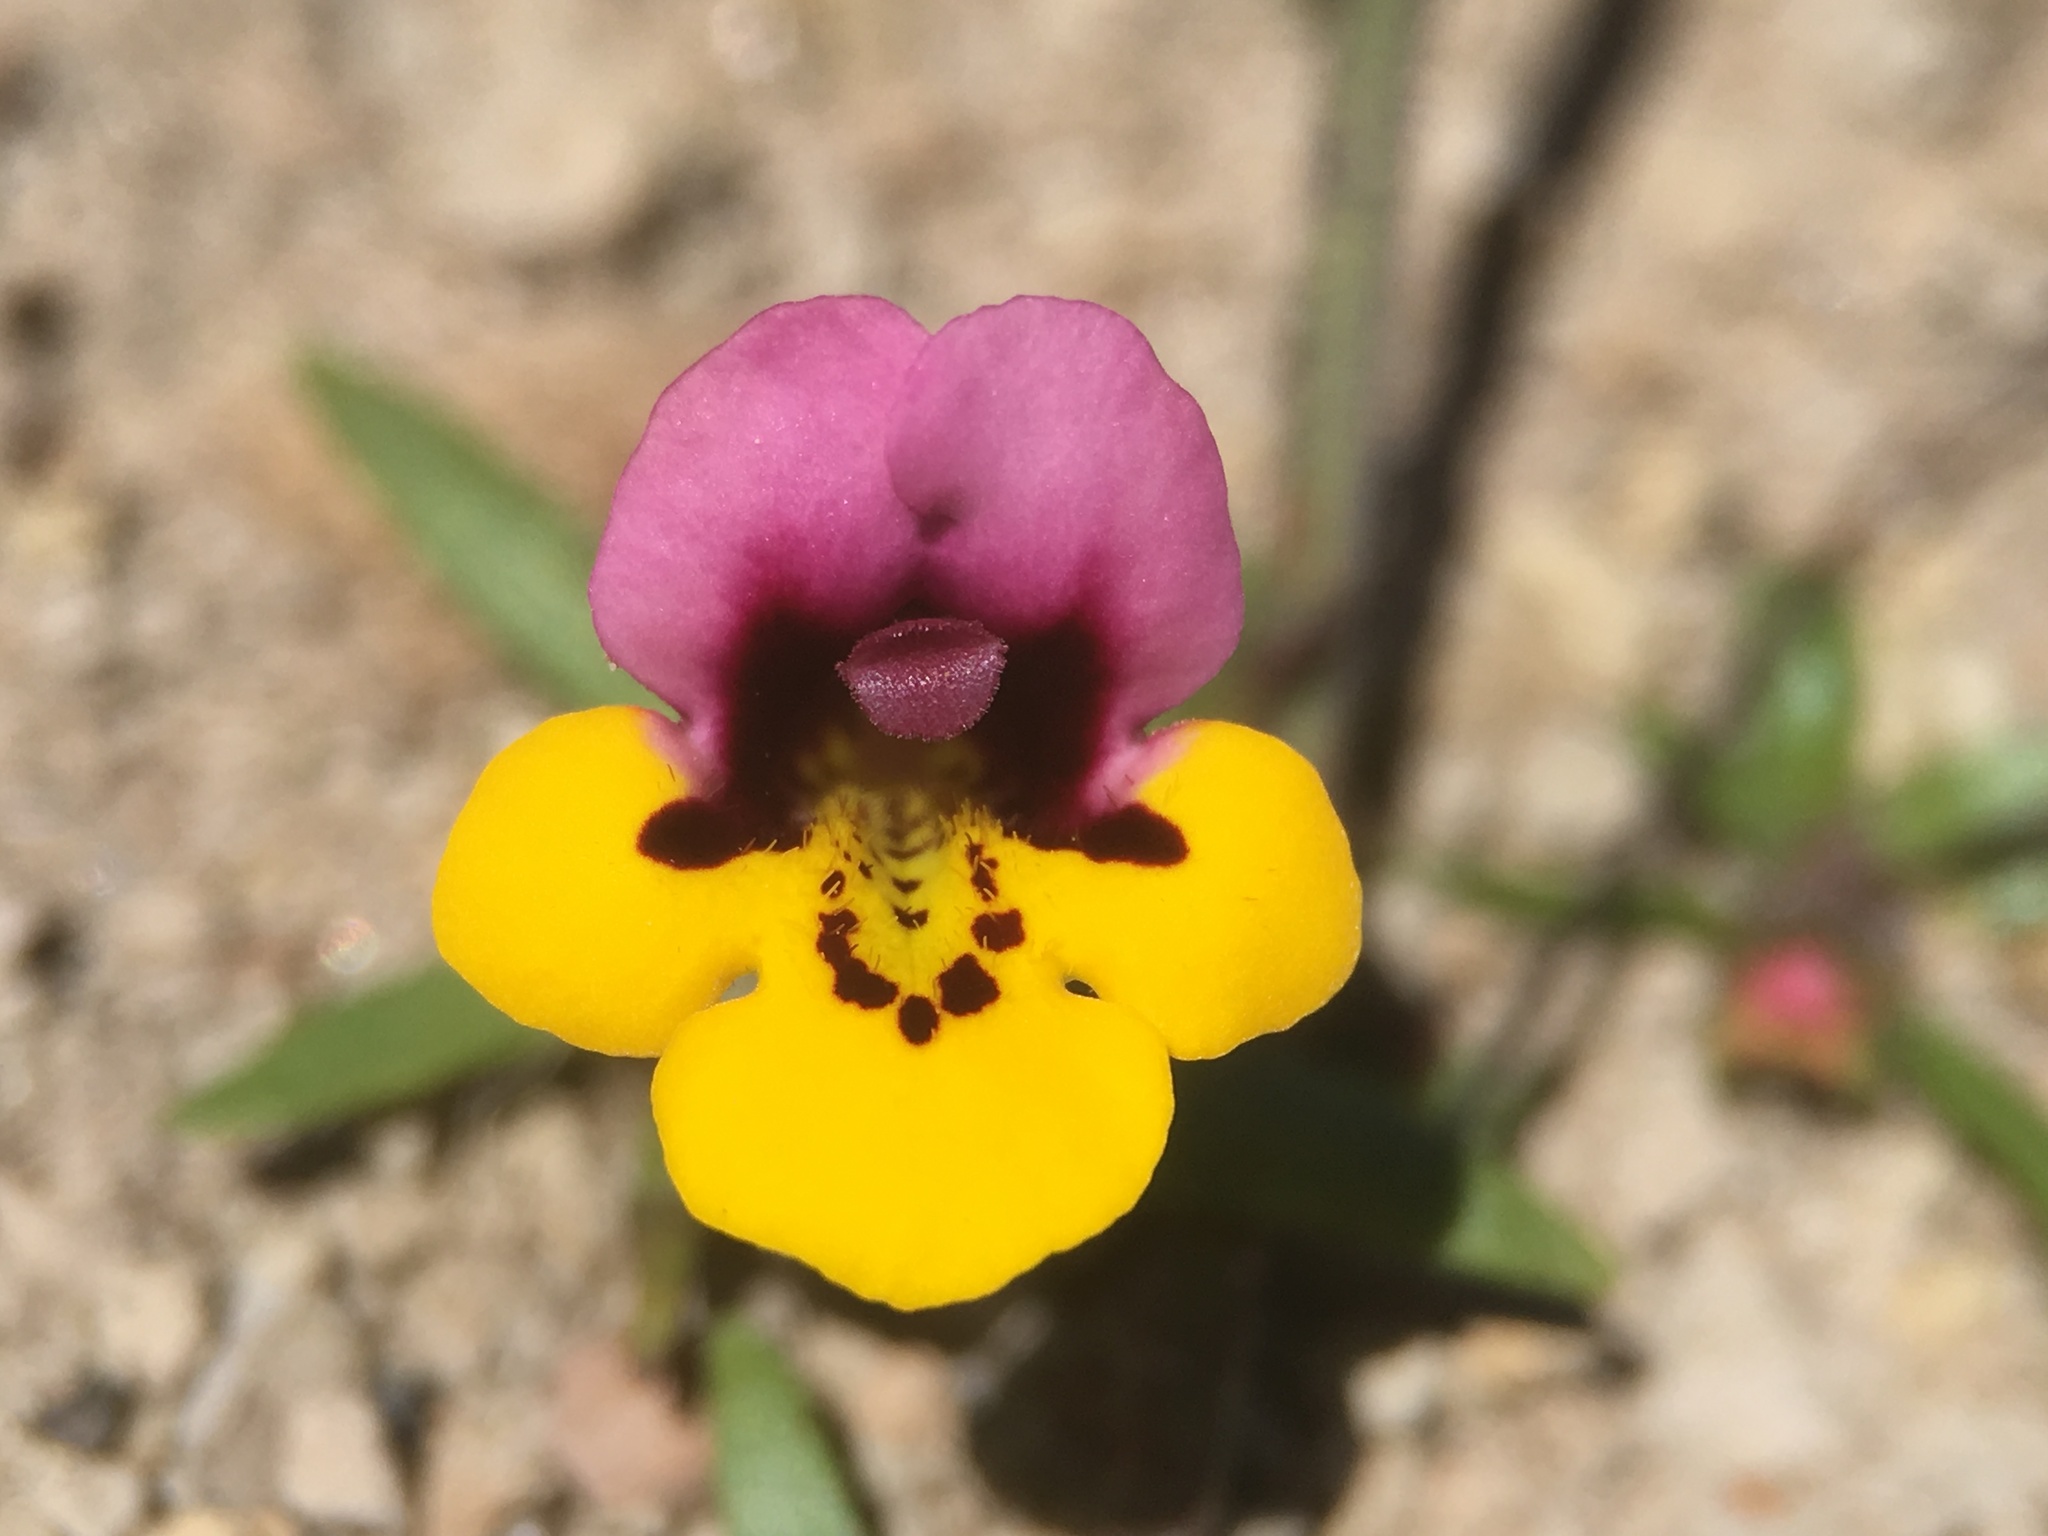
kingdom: Plantae
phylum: Tracheophyta
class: Magnoliopsida
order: Lamiales
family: Phrymaceae
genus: Diplacus
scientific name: Diplacus pulchellus
